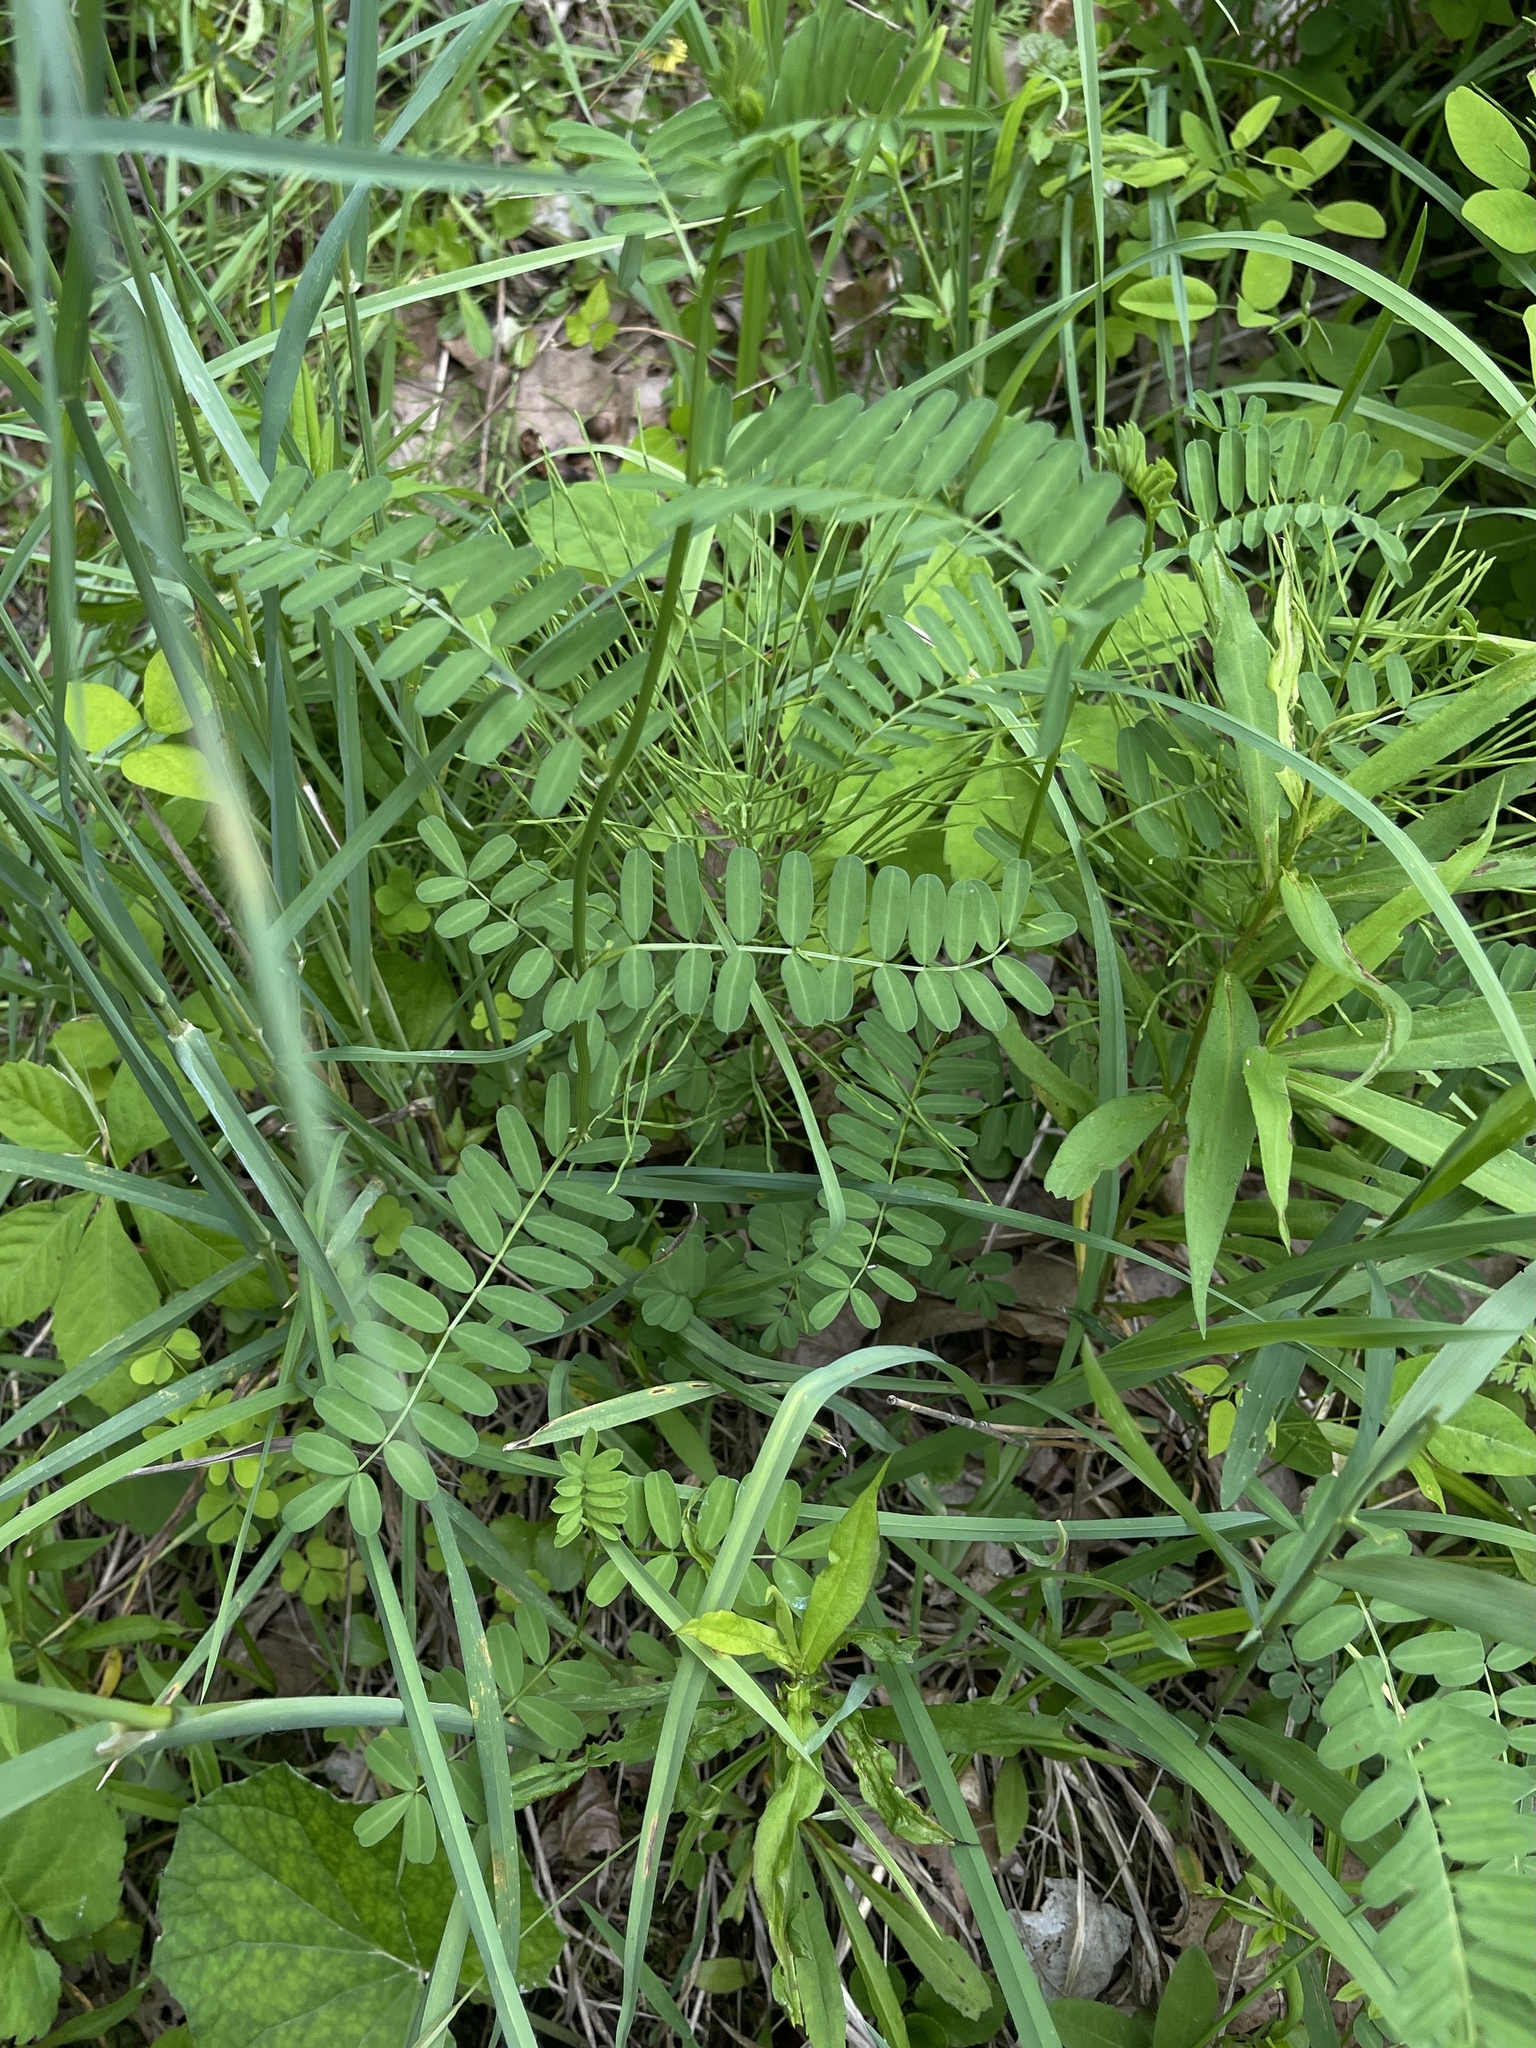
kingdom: Plantae
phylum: Tracheophyta
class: Magnoliopsida
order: Fabales
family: Fabaceae
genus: Coronilla
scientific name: Coronilla varia
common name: Crownvetch
